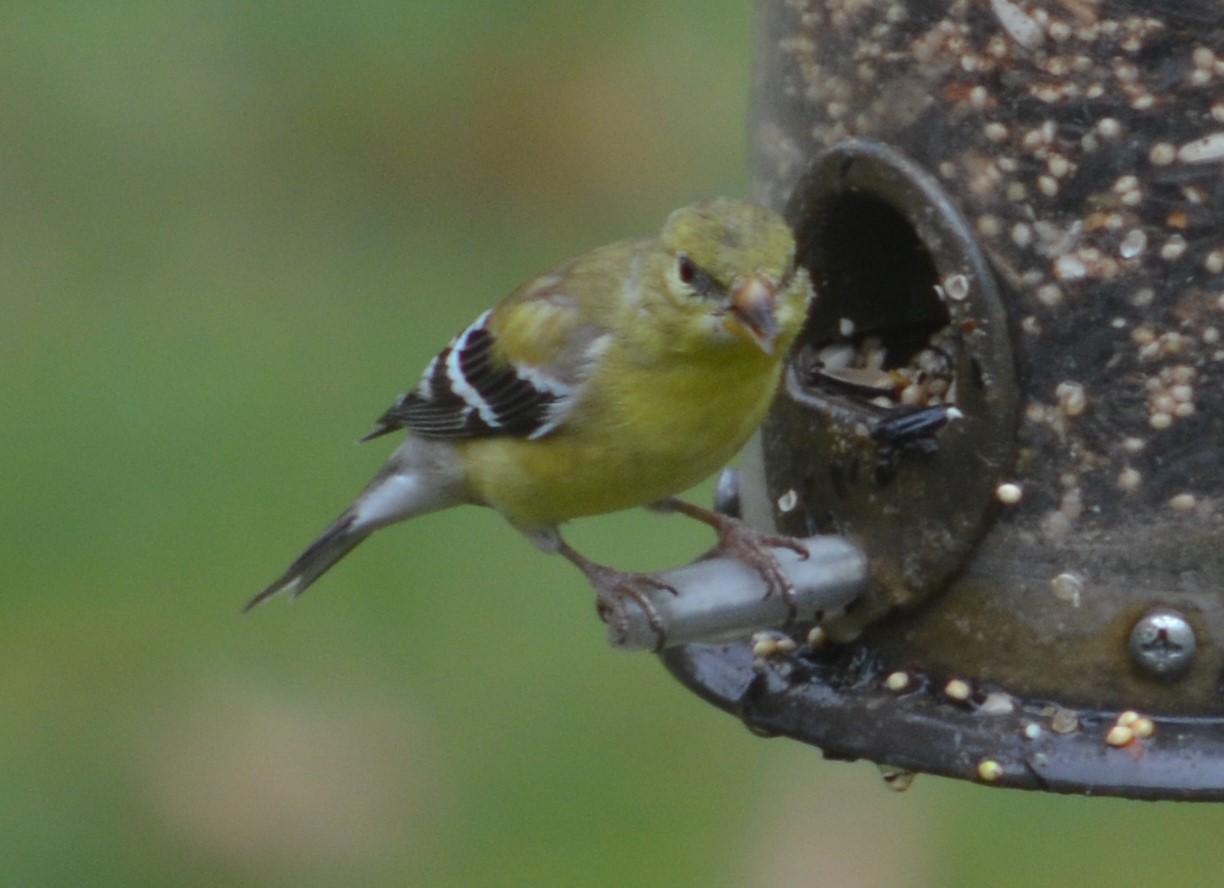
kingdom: Animalia
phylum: Chordata
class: Aves
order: Passeriformes
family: Fringillidae
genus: Spinus
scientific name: Spinus tristis
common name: American goldfinch
